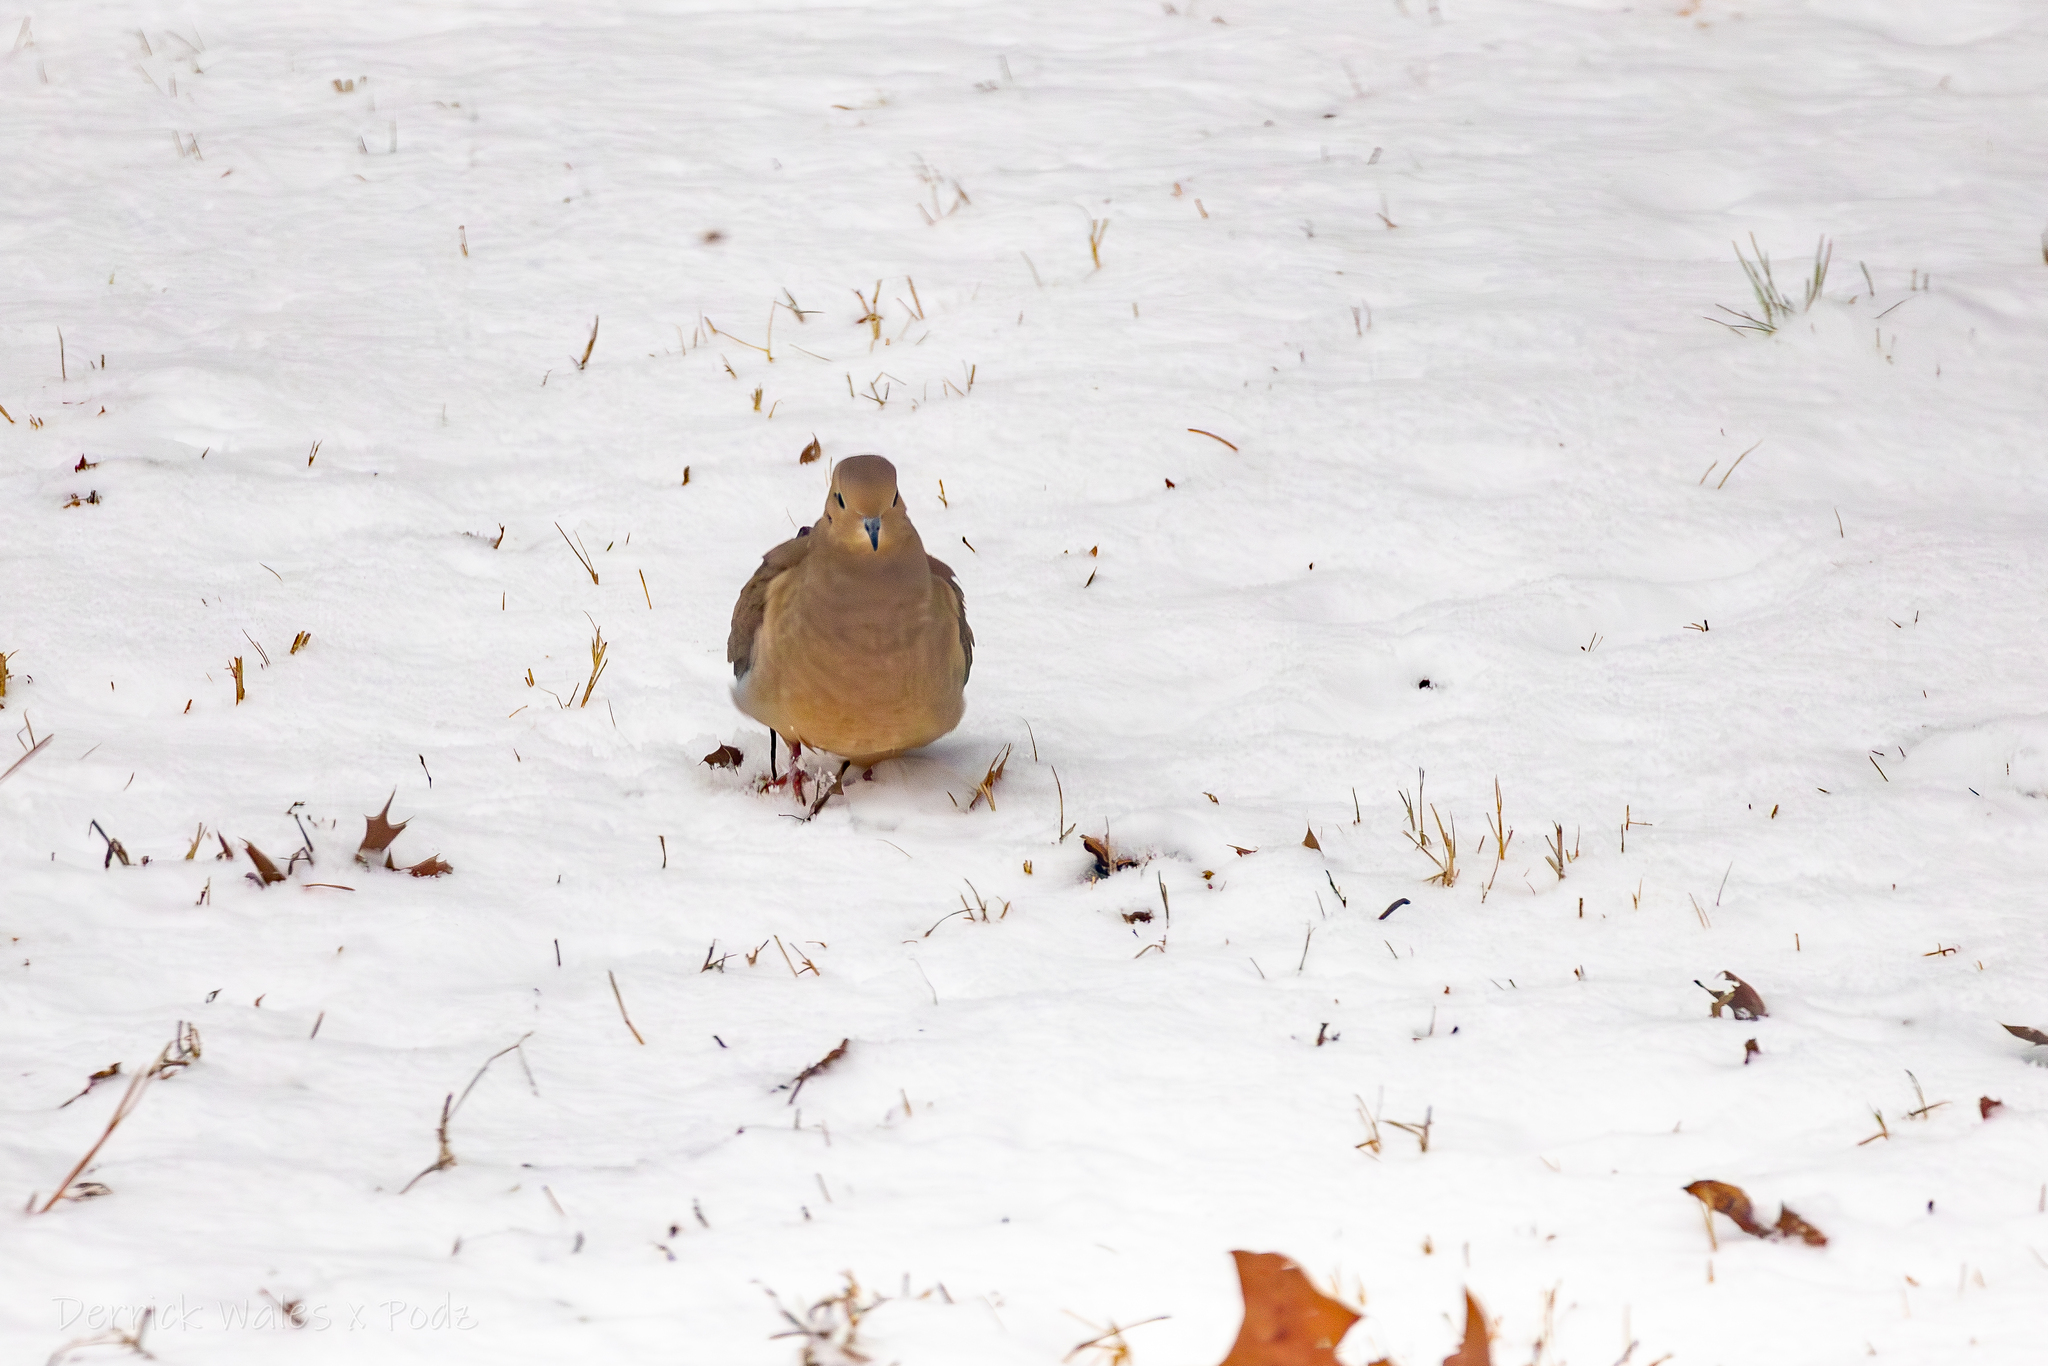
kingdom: Animalia
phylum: Chordata
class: Aves
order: Columbiformes
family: Columbidae
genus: Zenaida
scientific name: Zenaida macroura
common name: Mourning dove
